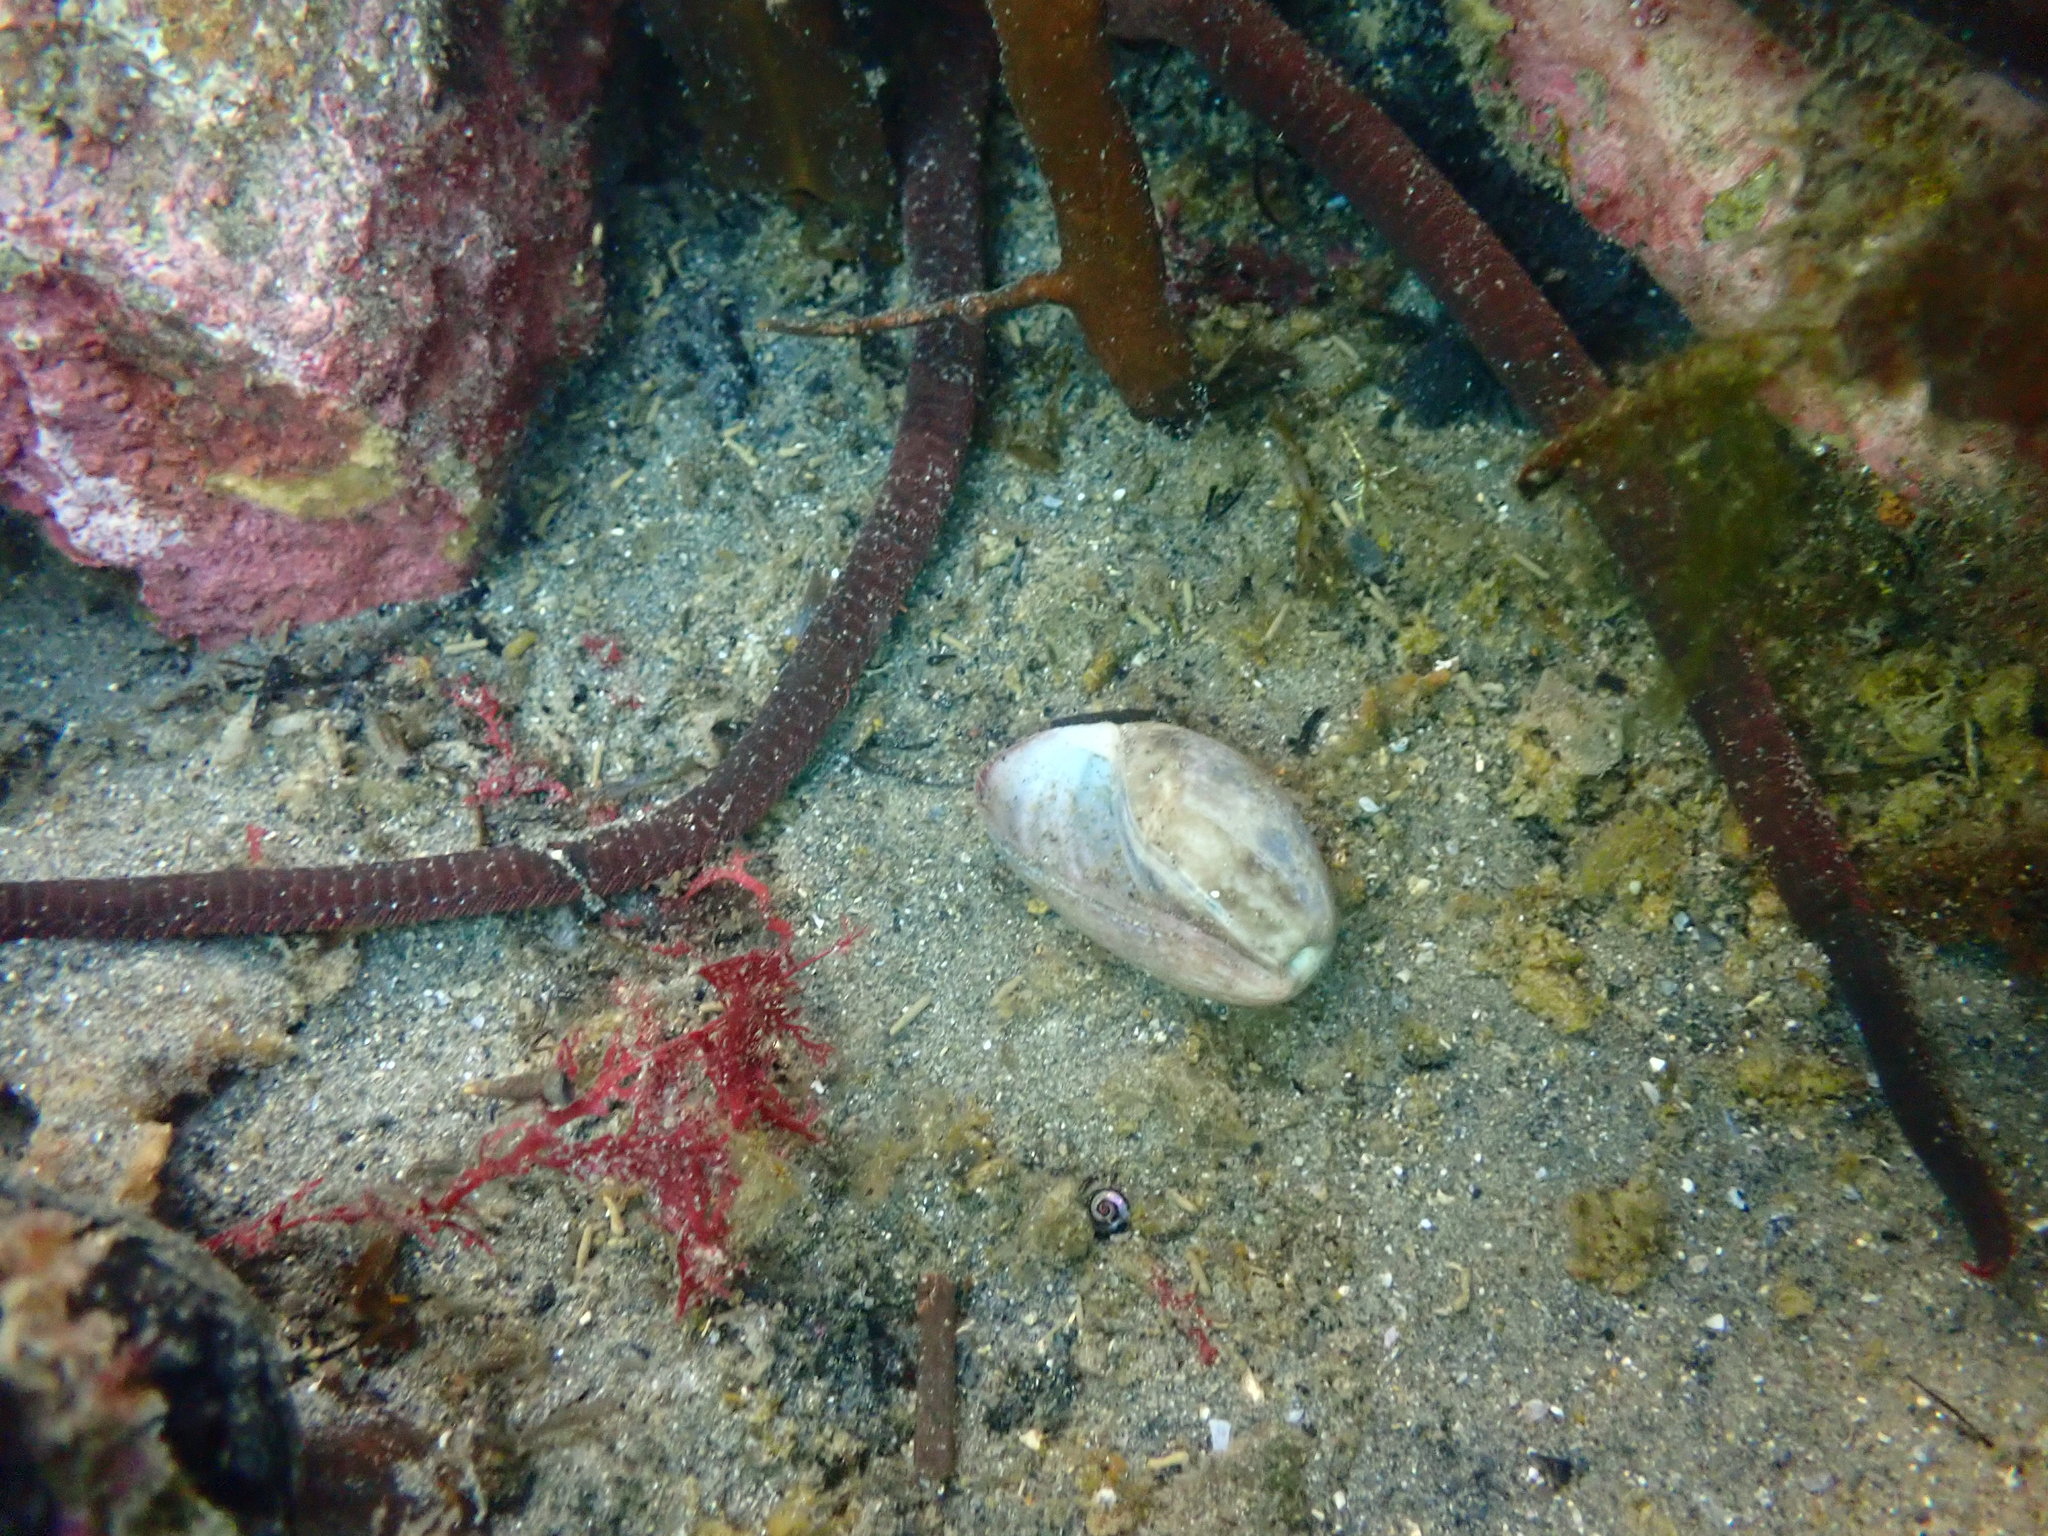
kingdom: Animalia
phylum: Mollusca
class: Gastropoda
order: Cephalaspidea
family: Bullidae
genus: Bulla
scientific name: Bulla quoyii
